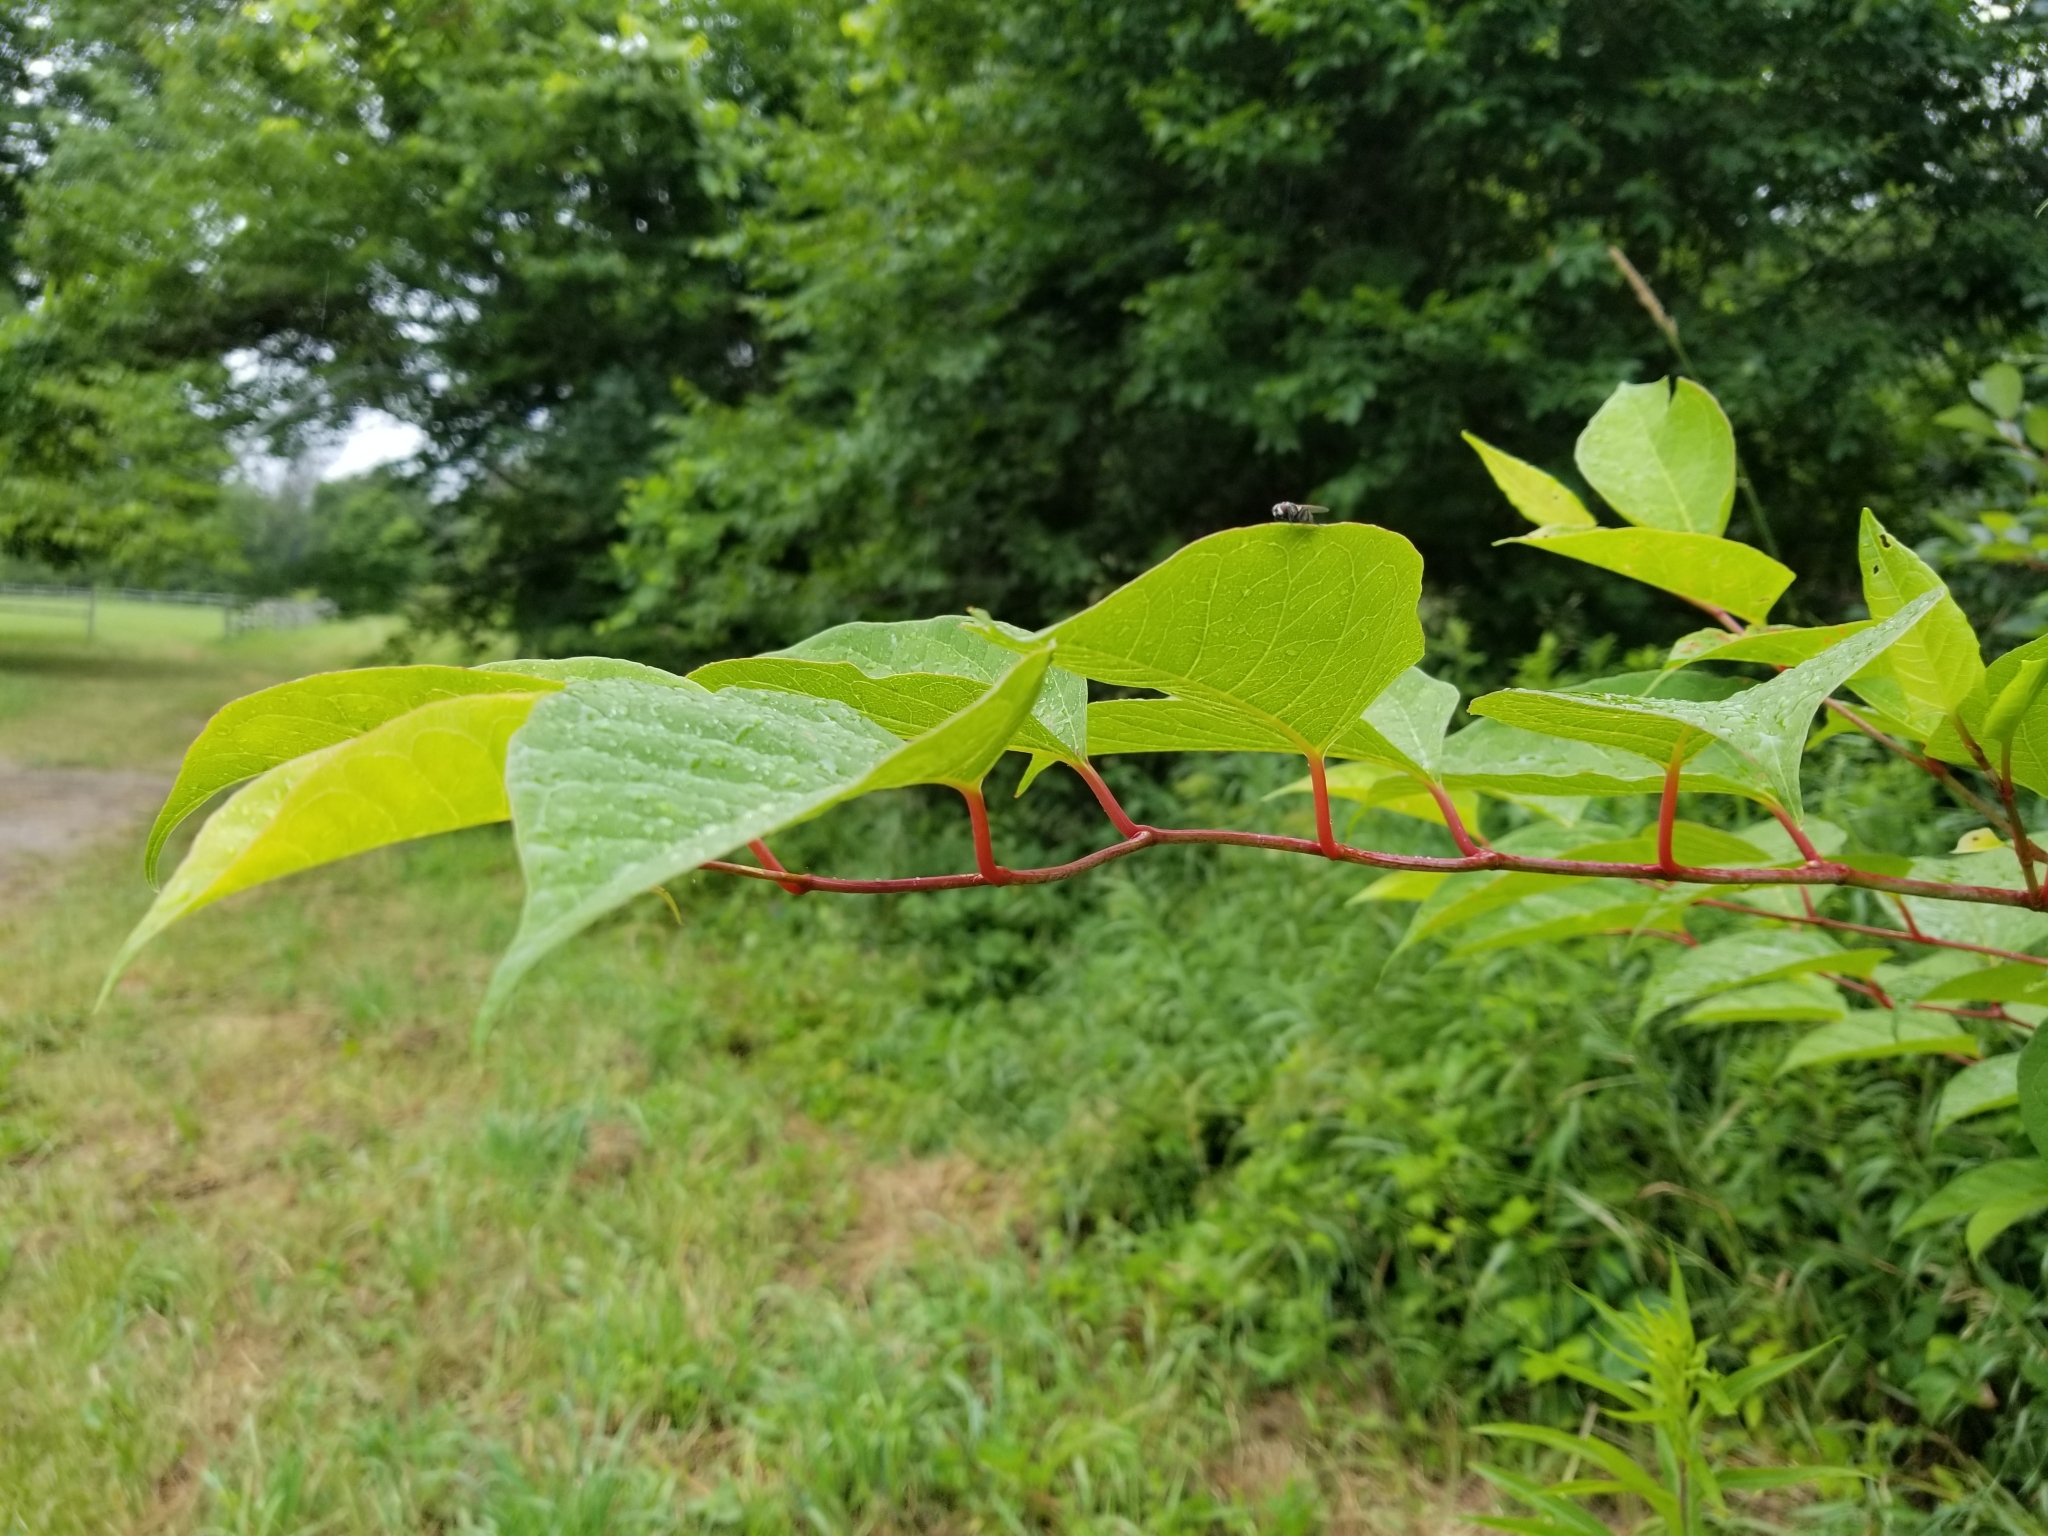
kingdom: Plantae
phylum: Tracheophyta
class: Magnoliopsida
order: Caryophyllales
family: Polygonaceae
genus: Reynoutria
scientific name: Reynoutria japonica
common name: Japanese knotweed
